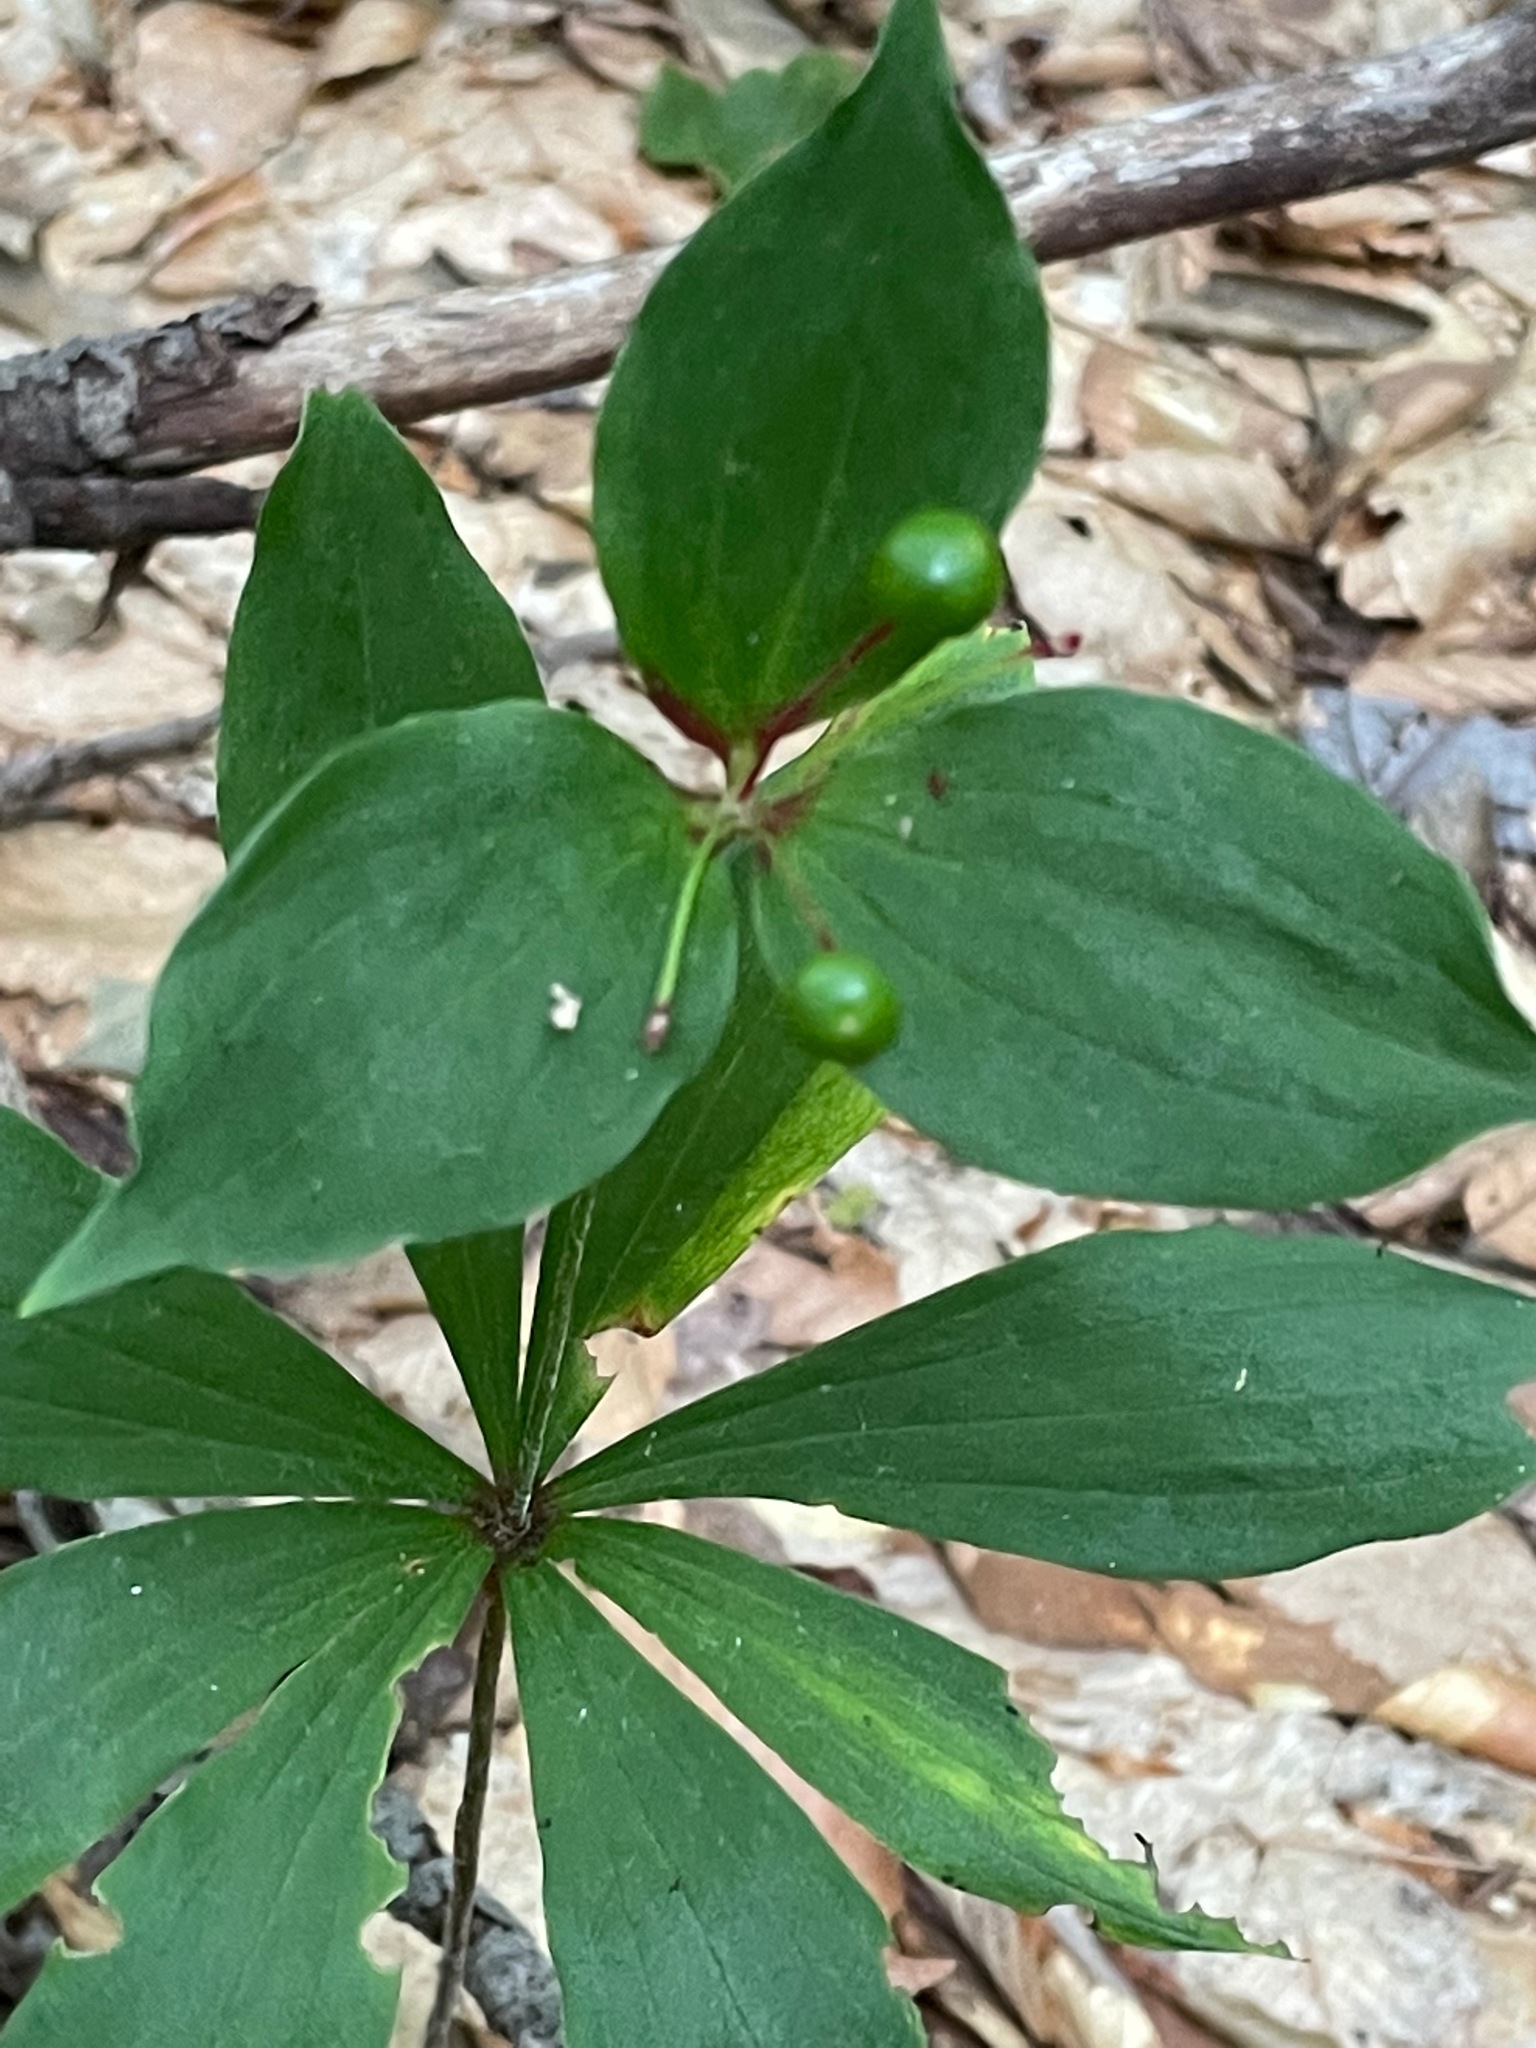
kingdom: Plantae
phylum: Tracheophyta
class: Liliopsida
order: Liliales
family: Liliaceae
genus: Medeola
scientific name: Medeola virginiana
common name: Indian cucumber-root
